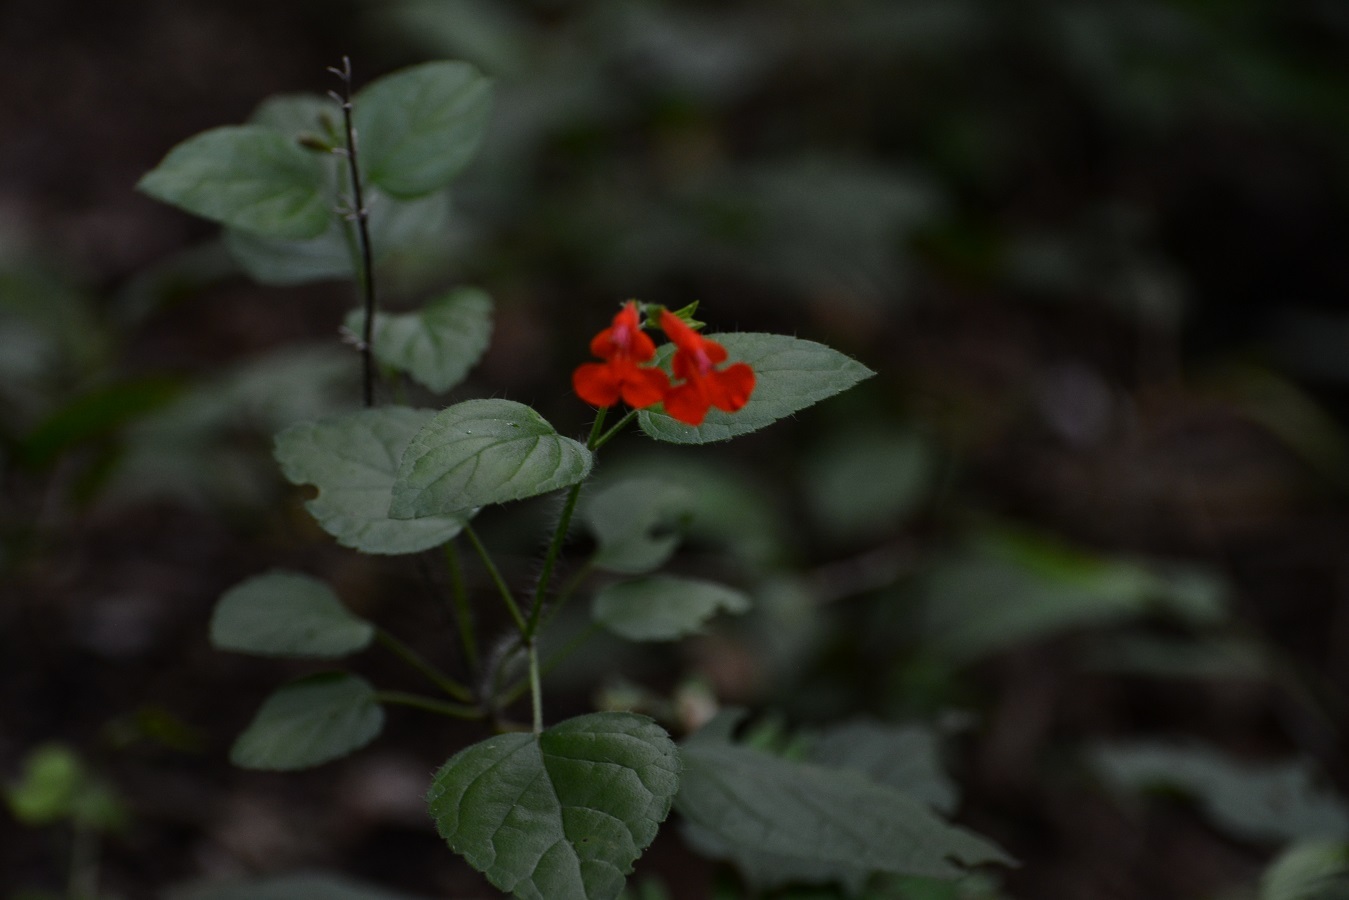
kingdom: Plantae
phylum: Tracheophyta
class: Magnoliopsida
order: Lamiales
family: Lamiaceae
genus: Salvia
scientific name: Salvia coccinea
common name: Blood sage
